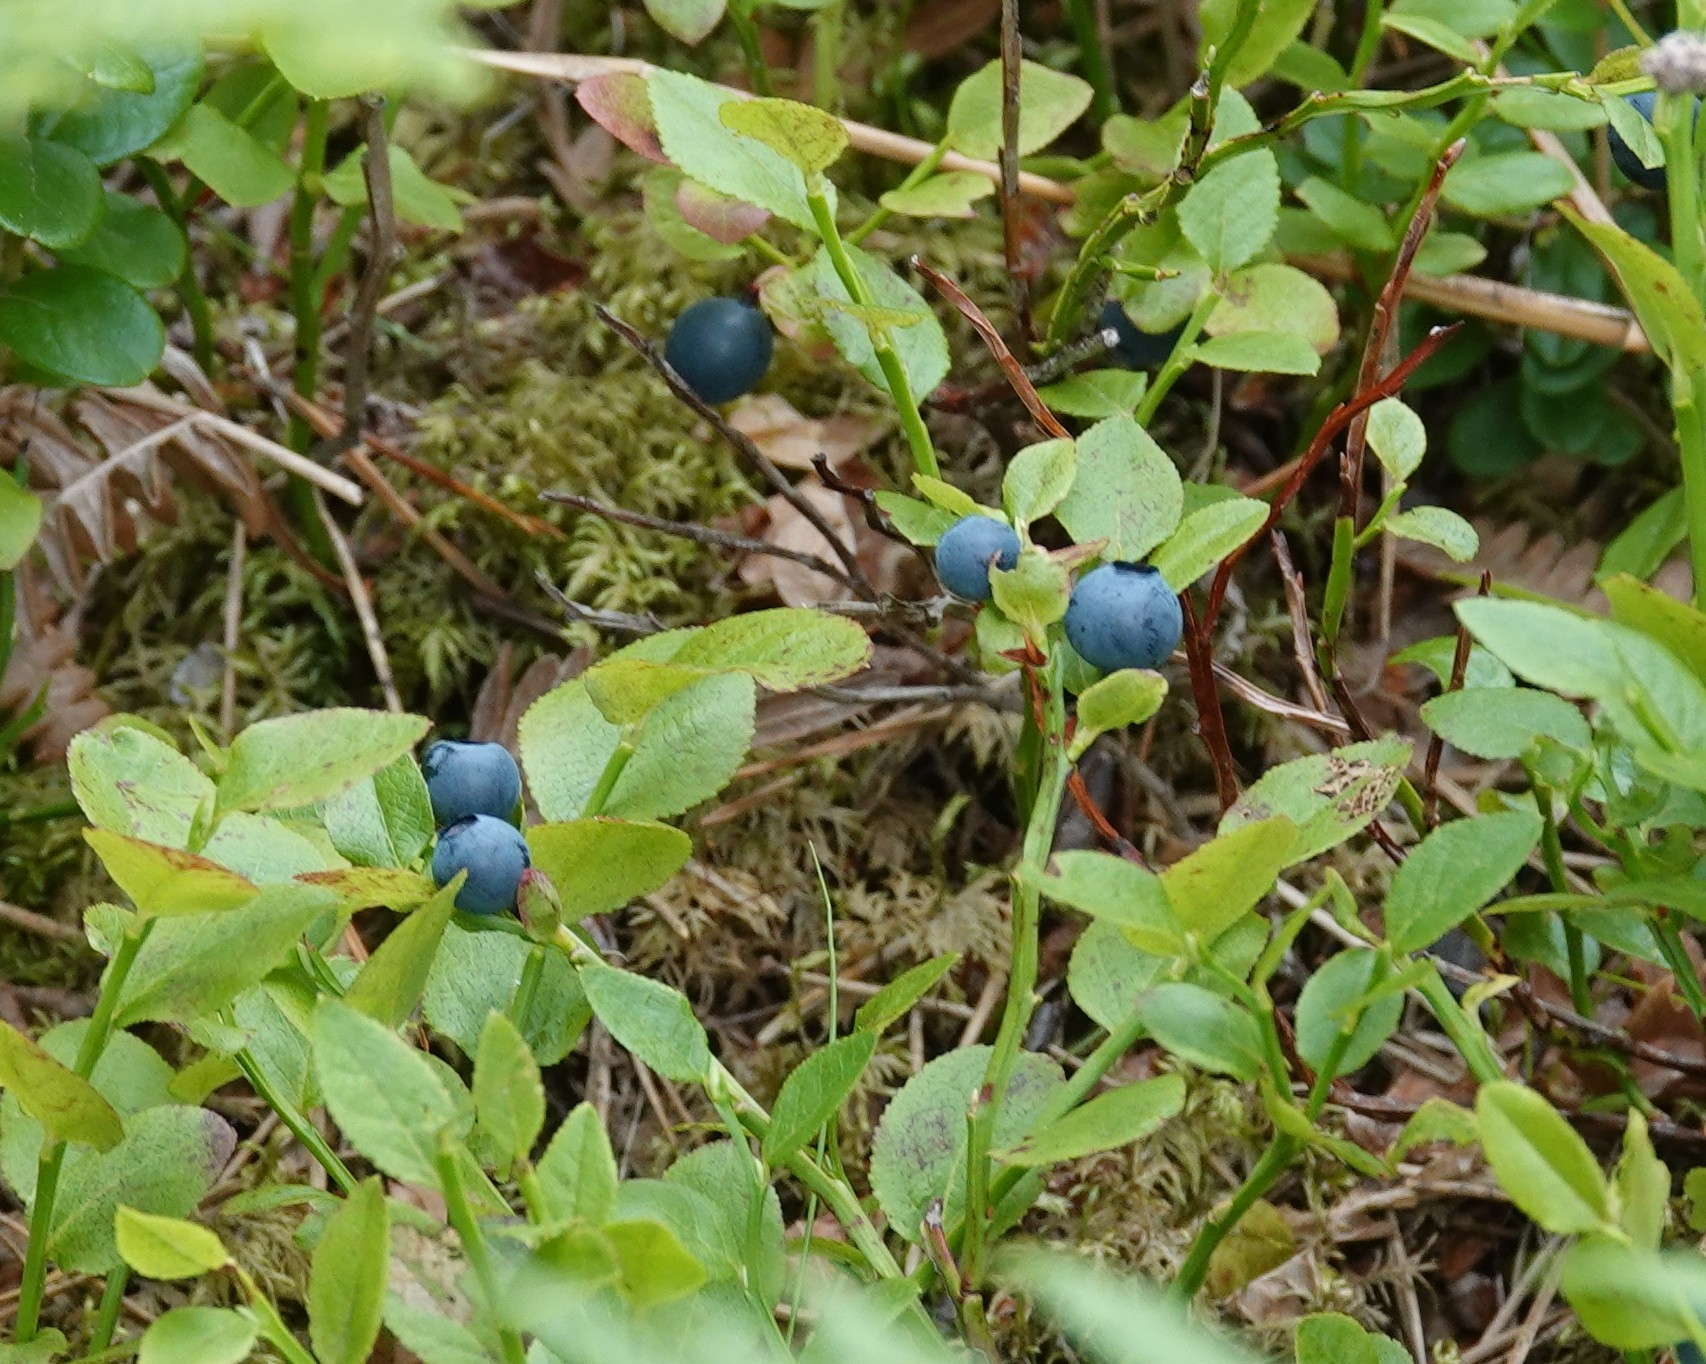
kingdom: Plantae
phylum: Tracheophyta
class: Magnoliopsida
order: Ericales
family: Ericaceae
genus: Vaccinium
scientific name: Vaccinium myrtillus
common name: Bilberry
